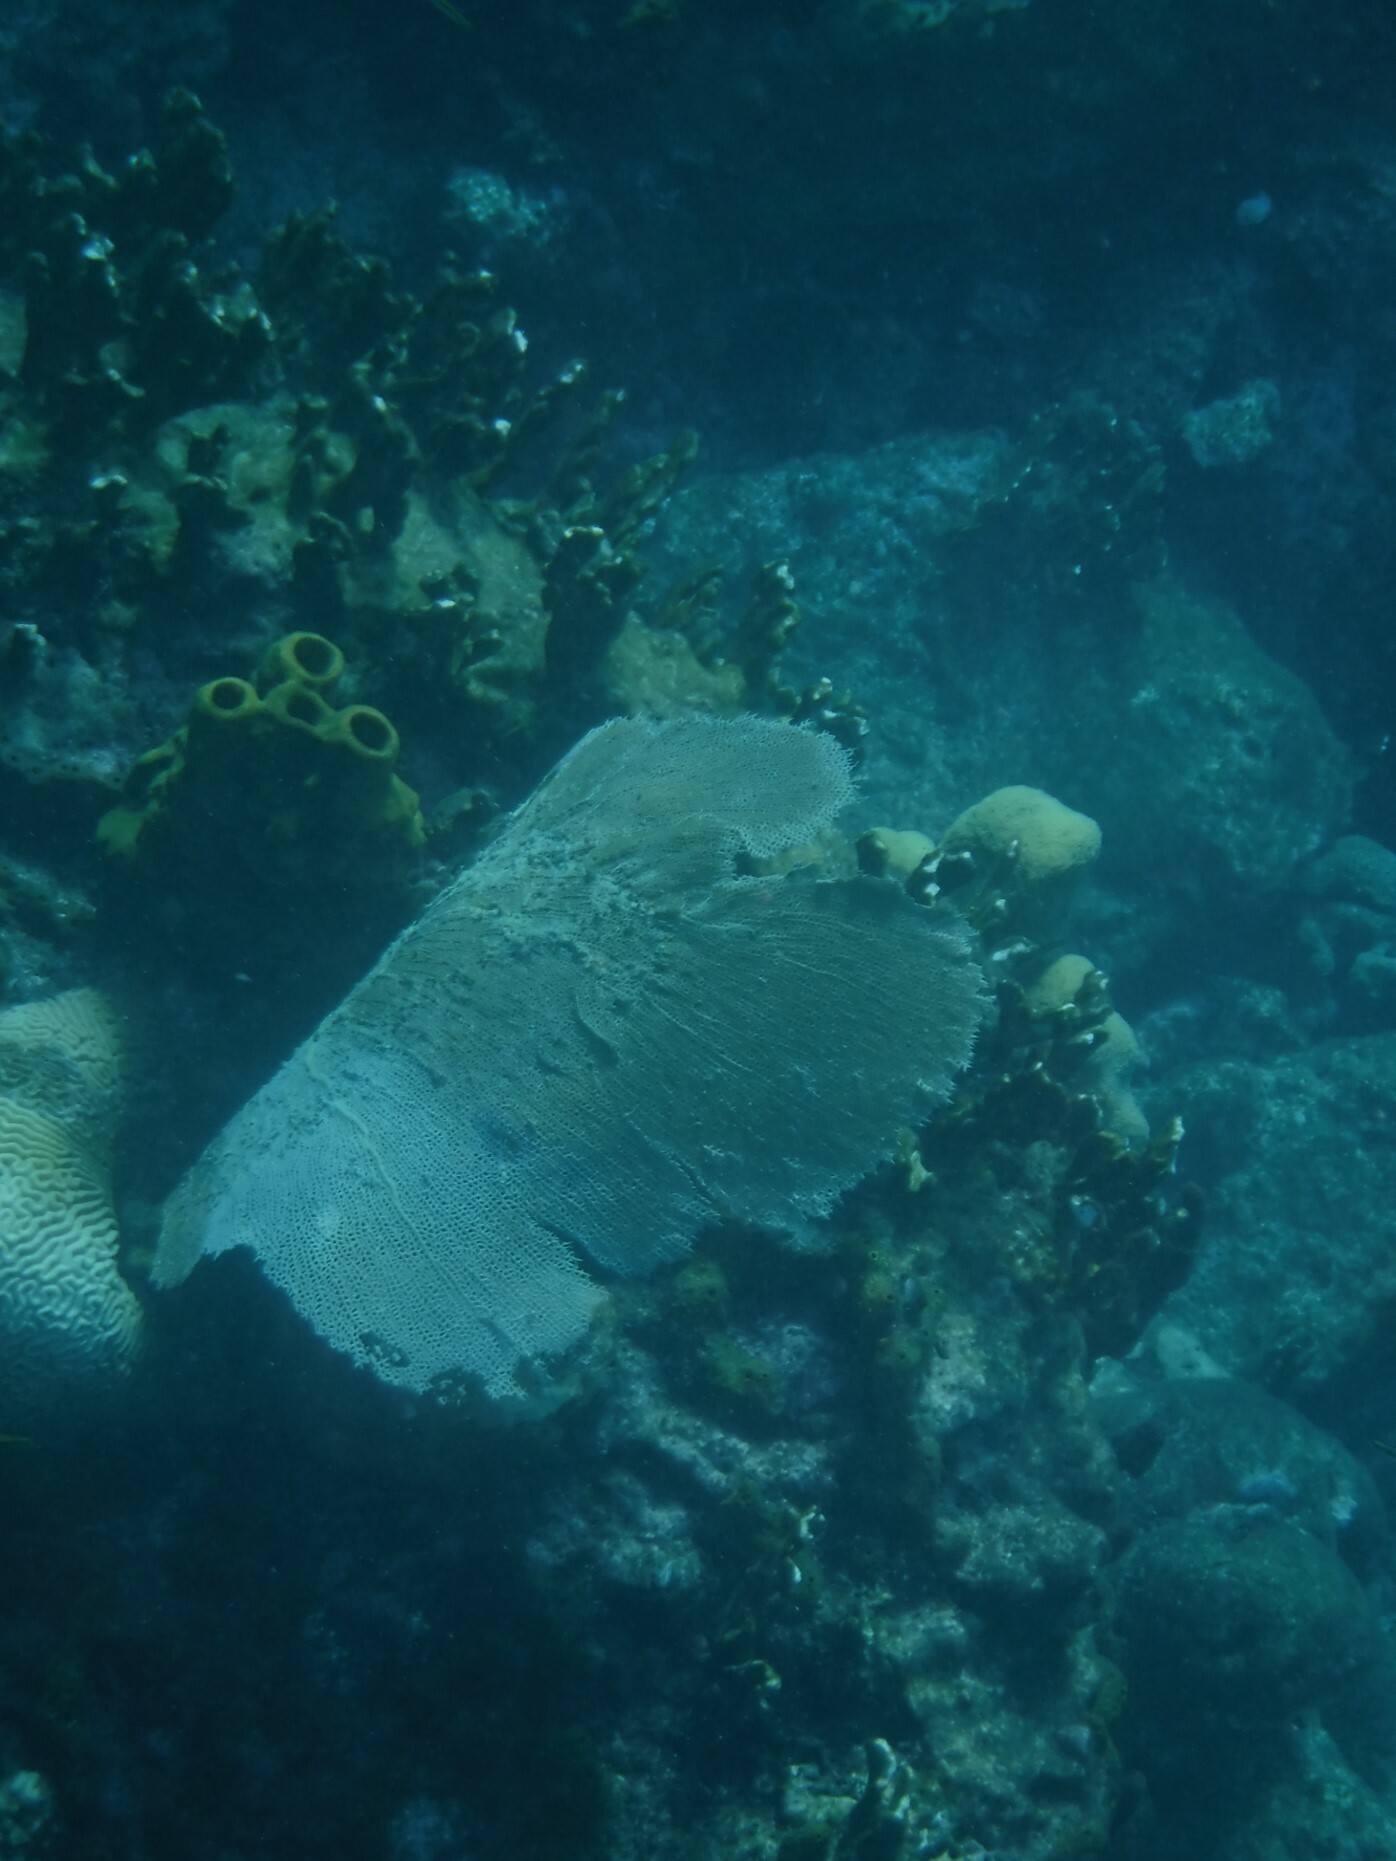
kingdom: Animalia
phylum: Cnidaria
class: Anthozoa
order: Malacalcyonacea
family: Gorgoniidae
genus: Gorgonia
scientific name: Gorgonia ventalina
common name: Common sea fan
